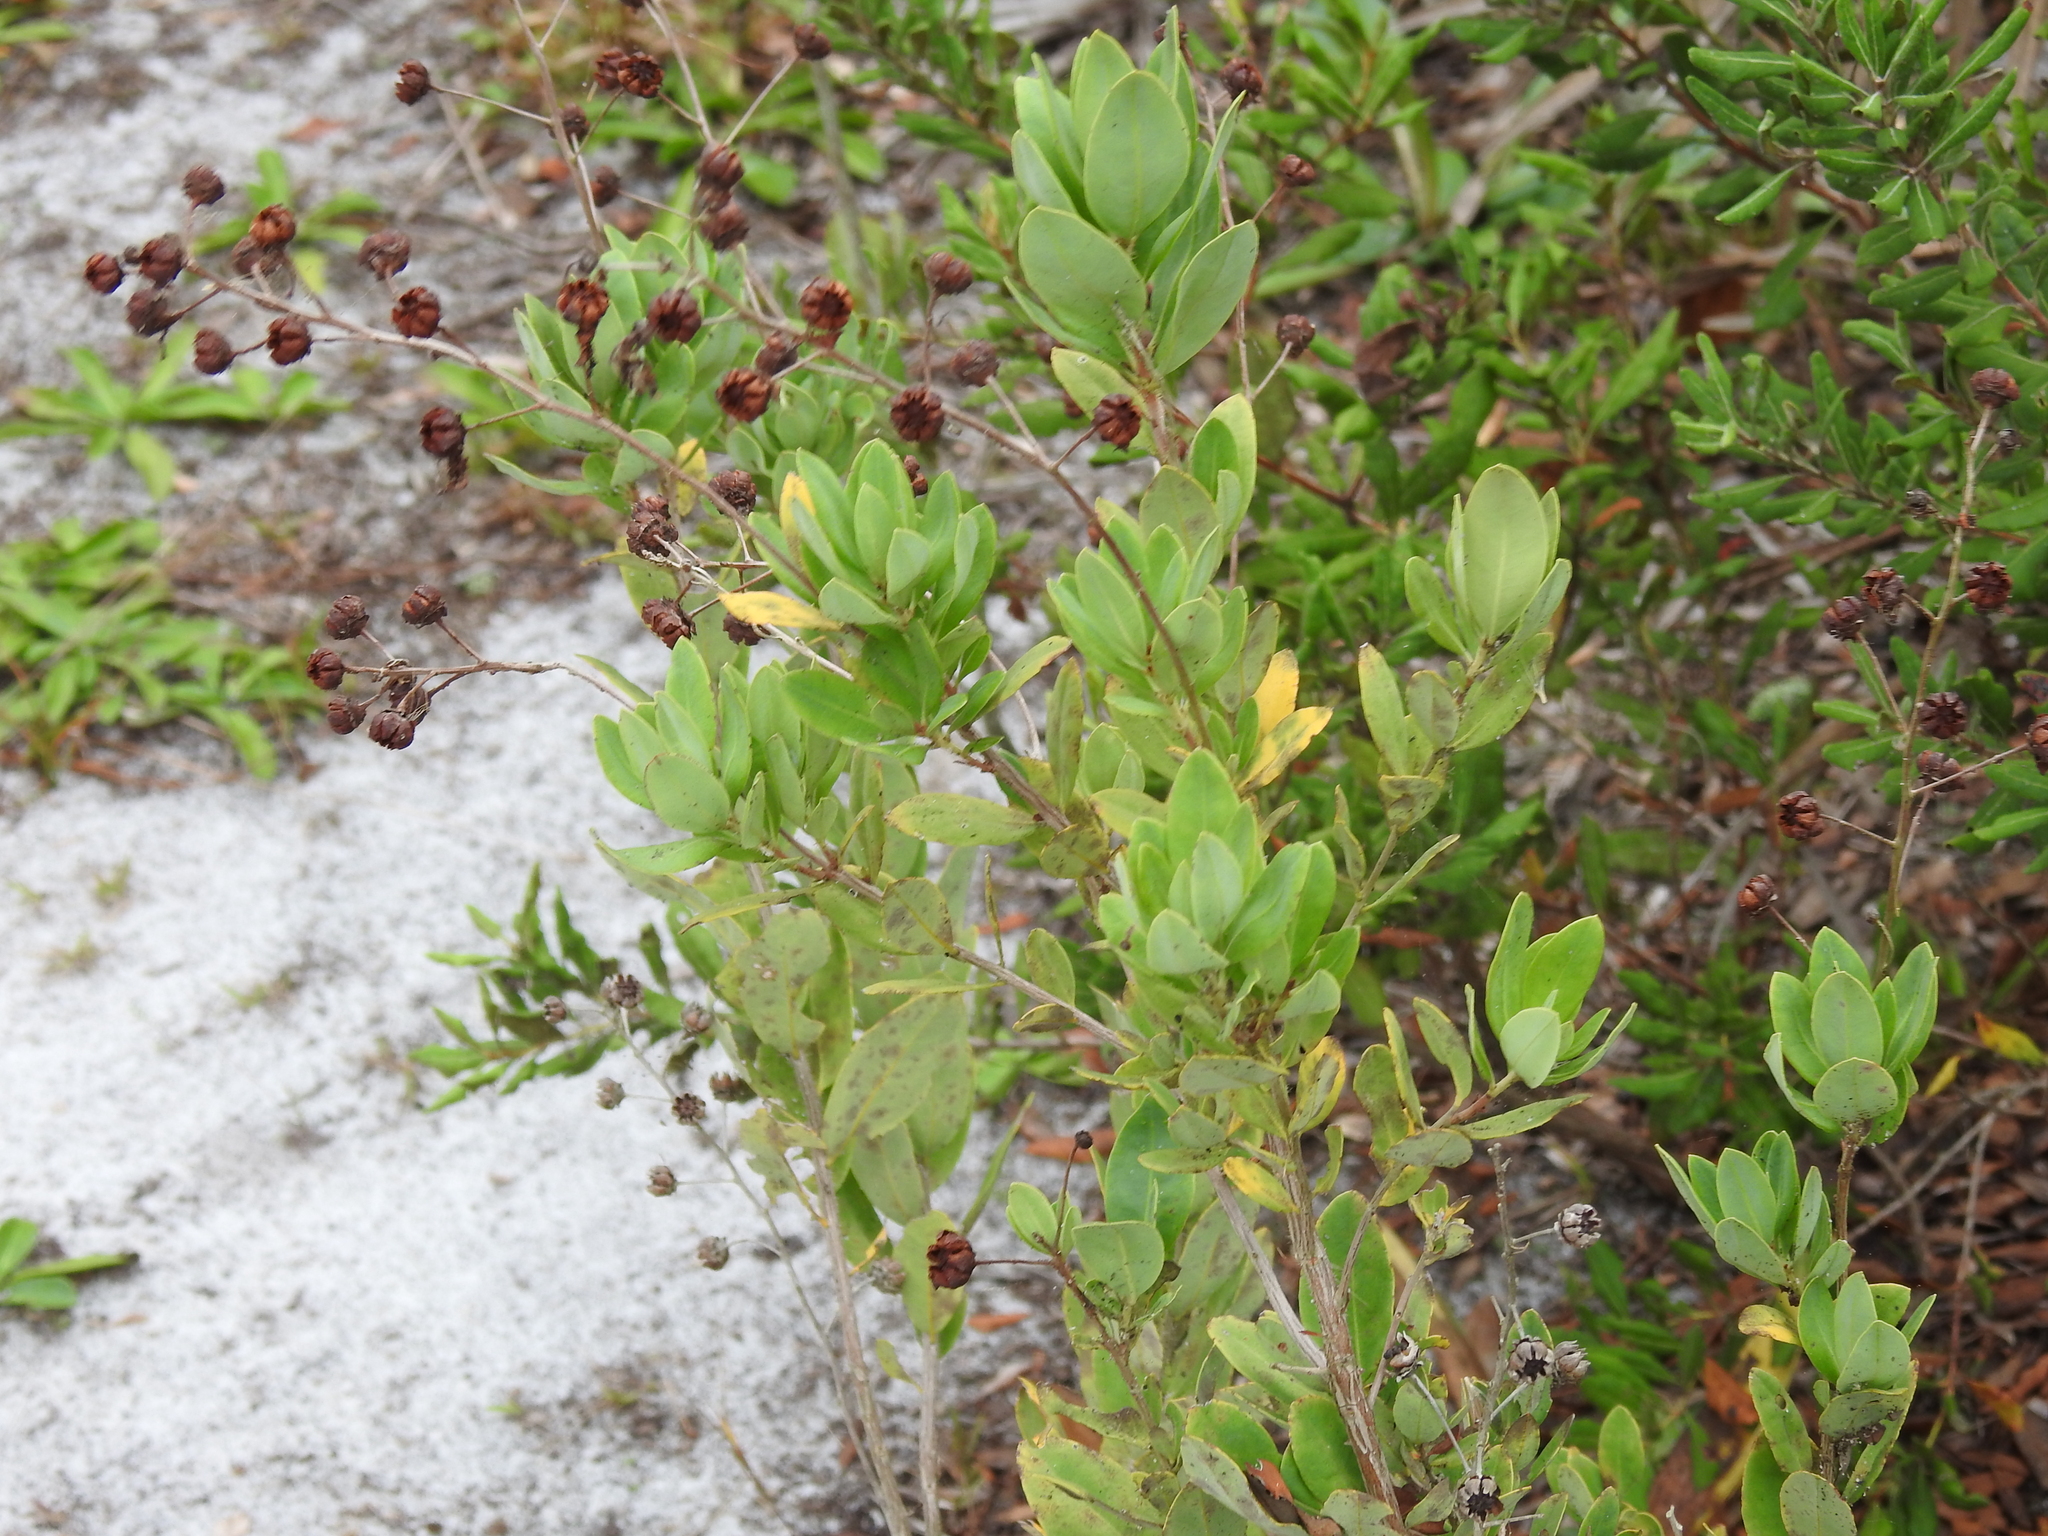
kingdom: Plantae
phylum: Tracheophyta
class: Magnoliopsida
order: Ericales
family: Ericaceae
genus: Bejaria
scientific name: Bejaria racemosa
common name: Tarflower
